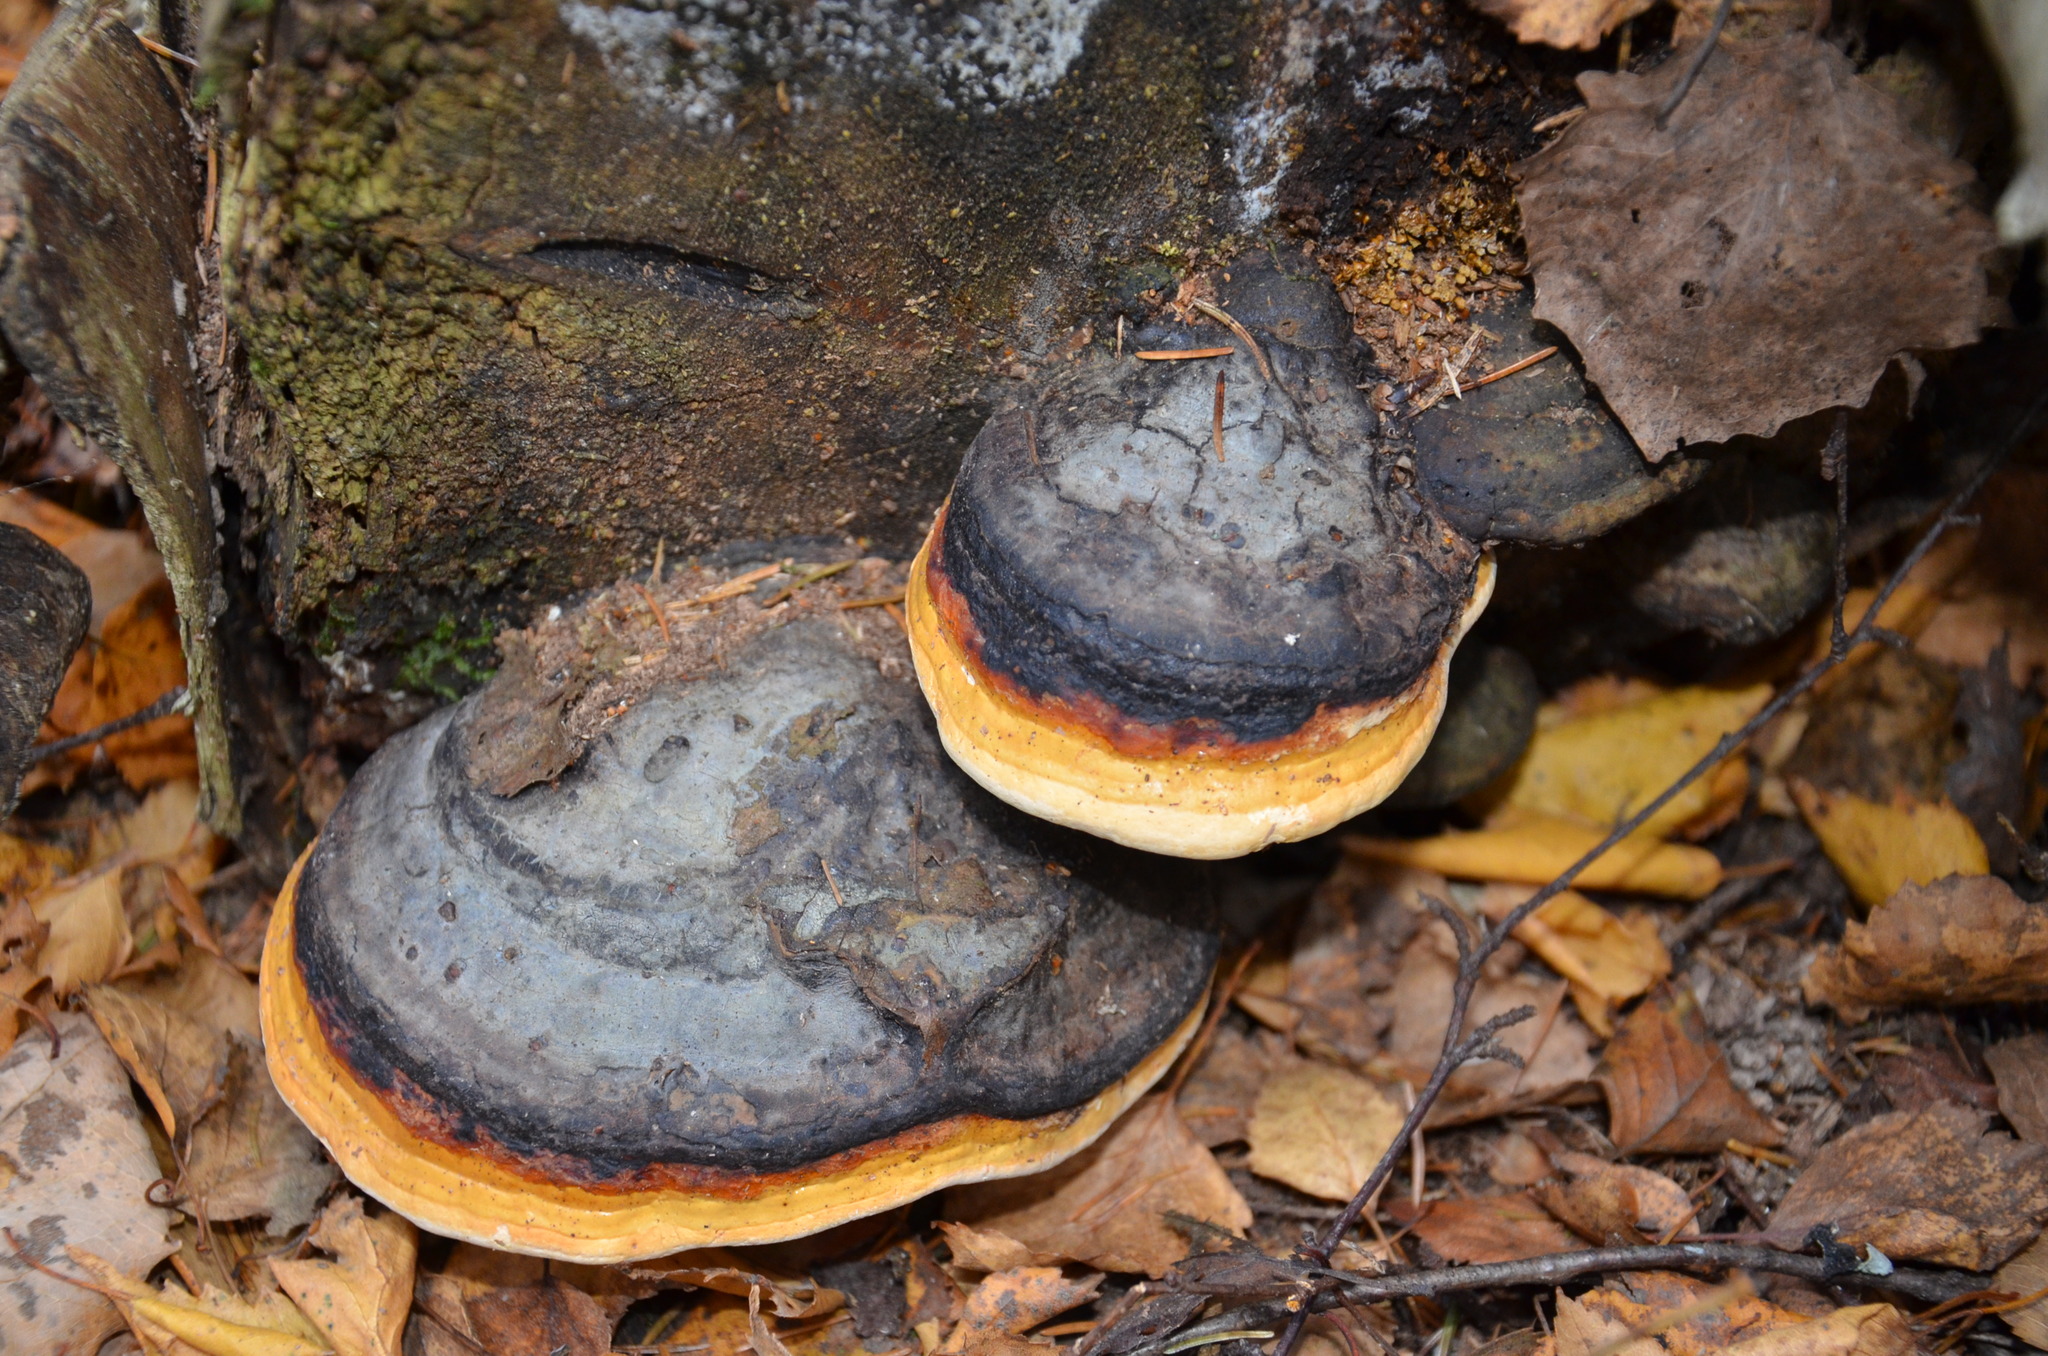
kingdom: Fungi
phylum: Basidiomycota
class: Agaricomycetes
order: Polyporales
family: Fomitopsidaceae
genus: Fomitopsis
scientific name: Fomitopsis pinicola
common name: Red-belted bracket
